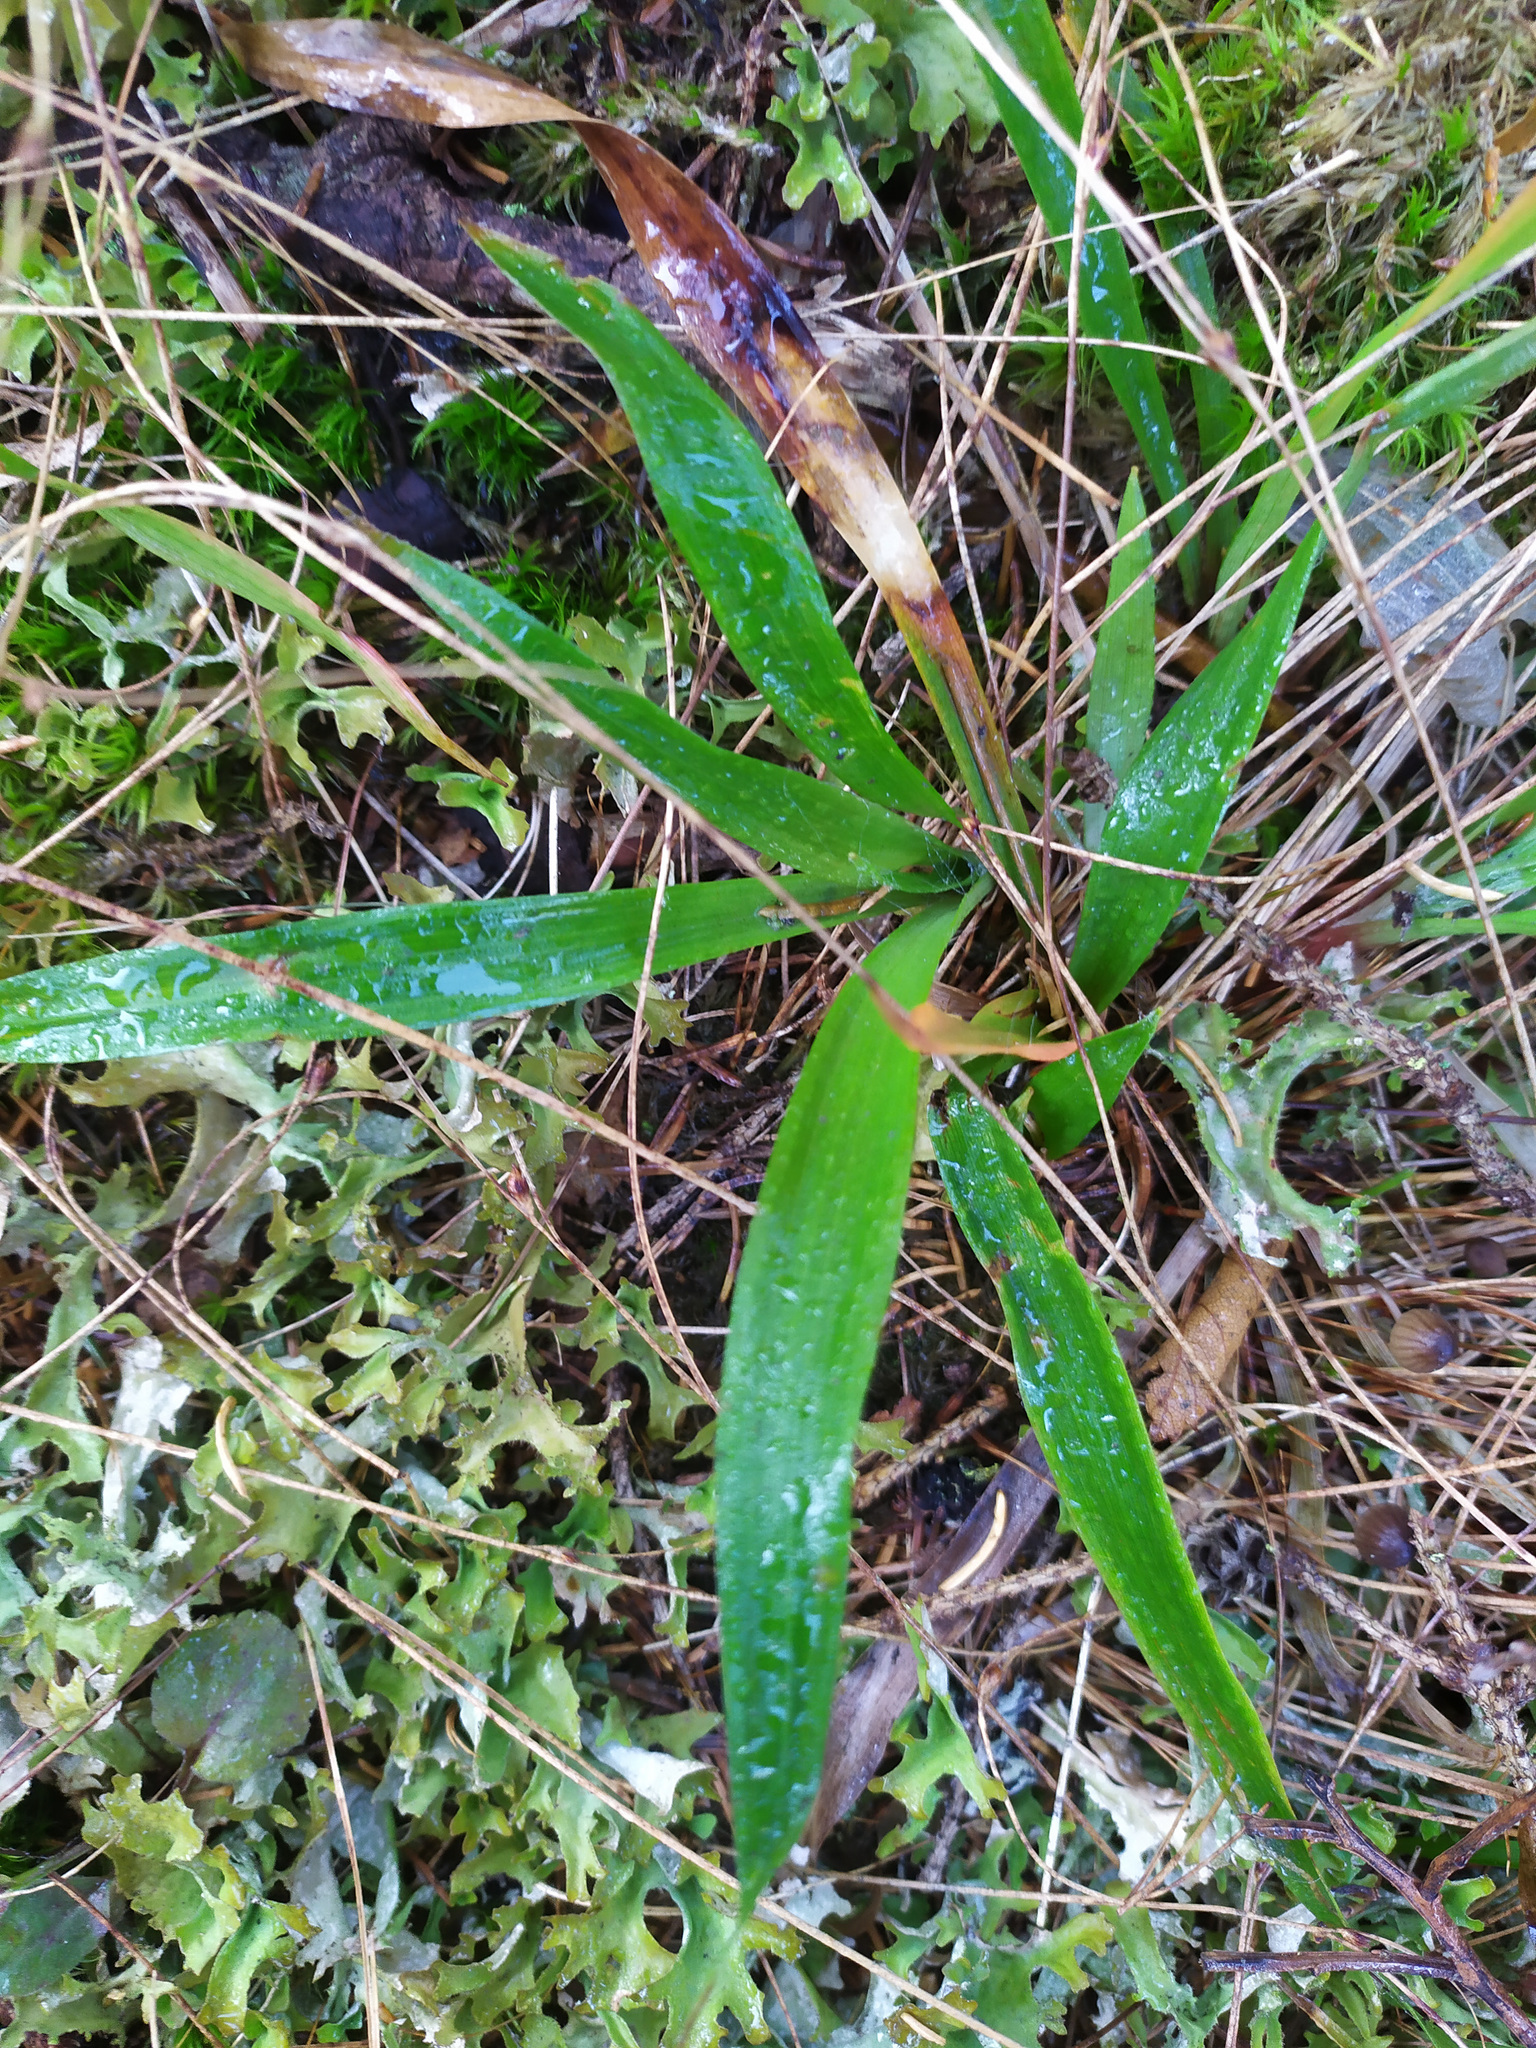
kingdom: Plantae
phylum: Tracheophyta
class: Liliopsida
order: Poales
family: Juncaceae
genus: Luzula
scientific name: Luzula pilosa
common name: Hairy wood-rush
